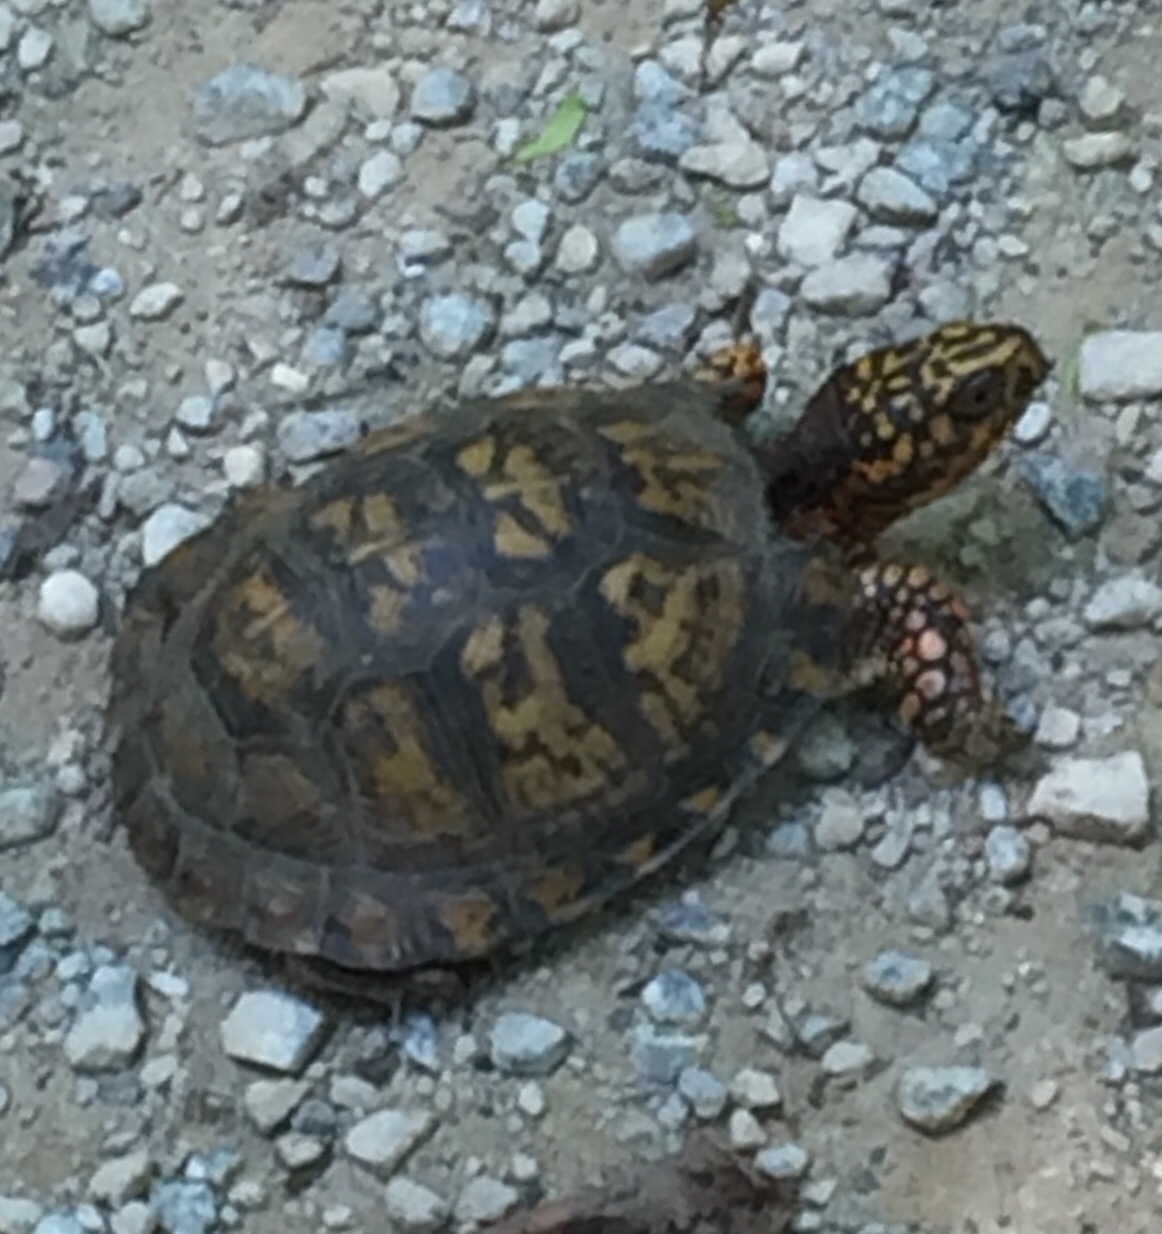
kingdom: Animalia
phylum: Chordata
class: Testudines
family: Emydidae
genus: Terrapene
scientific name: Terrapene carolina
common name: Common box turtle
